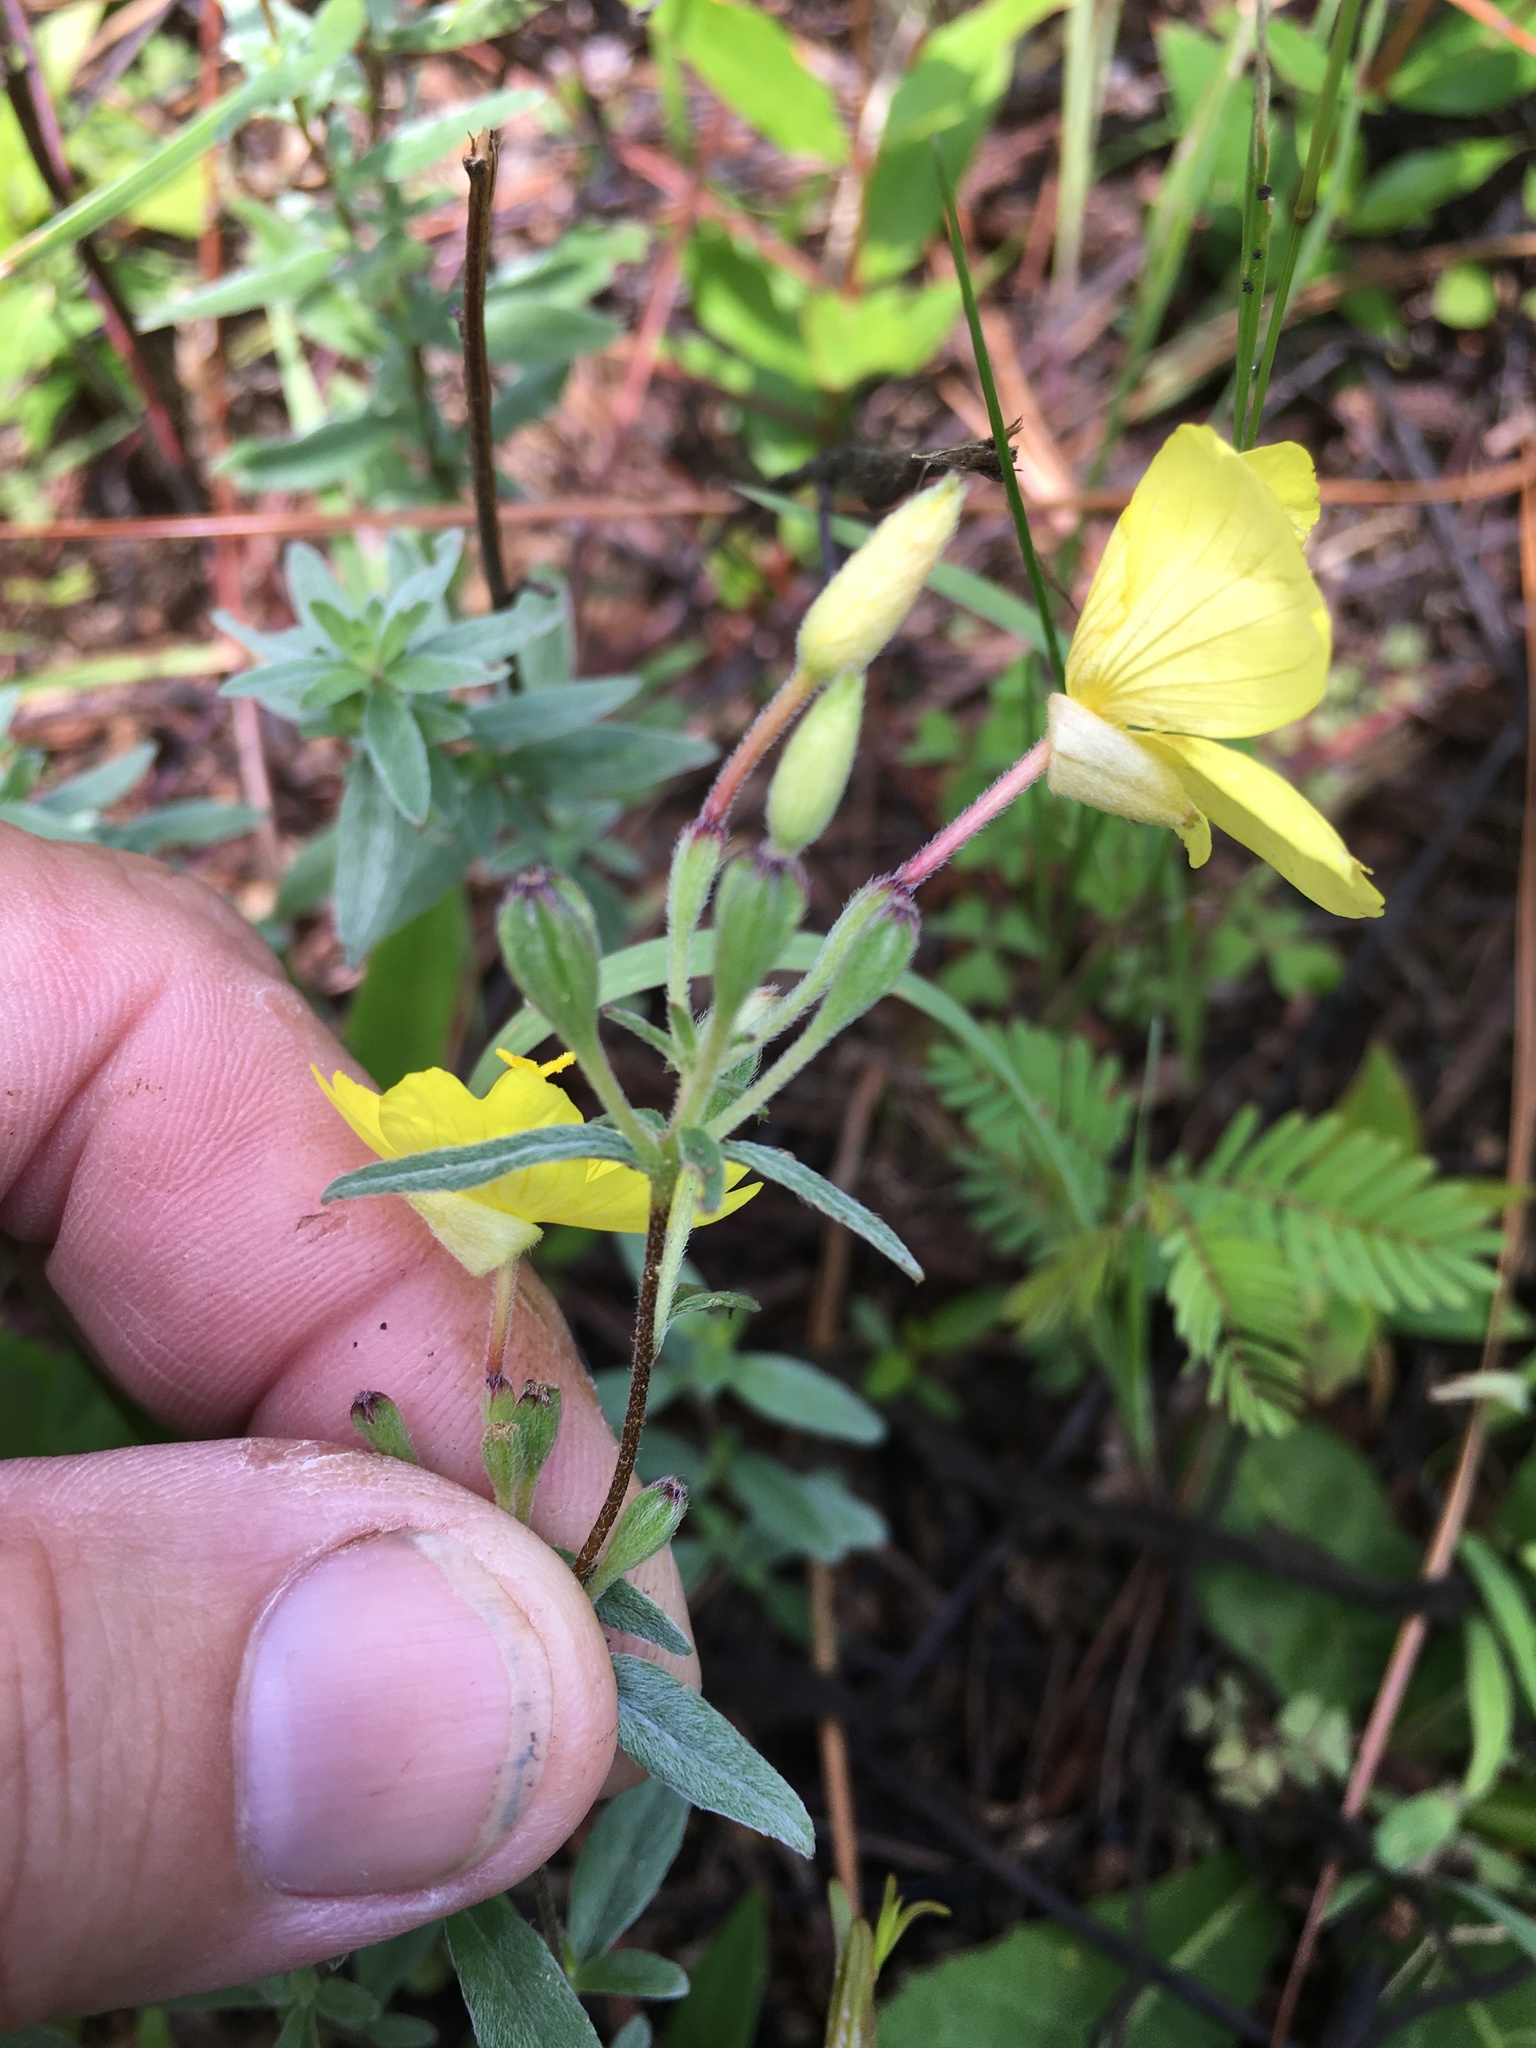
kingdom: Plantae
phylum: Tracheophyta
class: Magnoliopsida
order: Myrtales
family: Onagraceae
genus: Oenothera
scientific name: Oenothera fruticosa
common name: Southern sundrops
